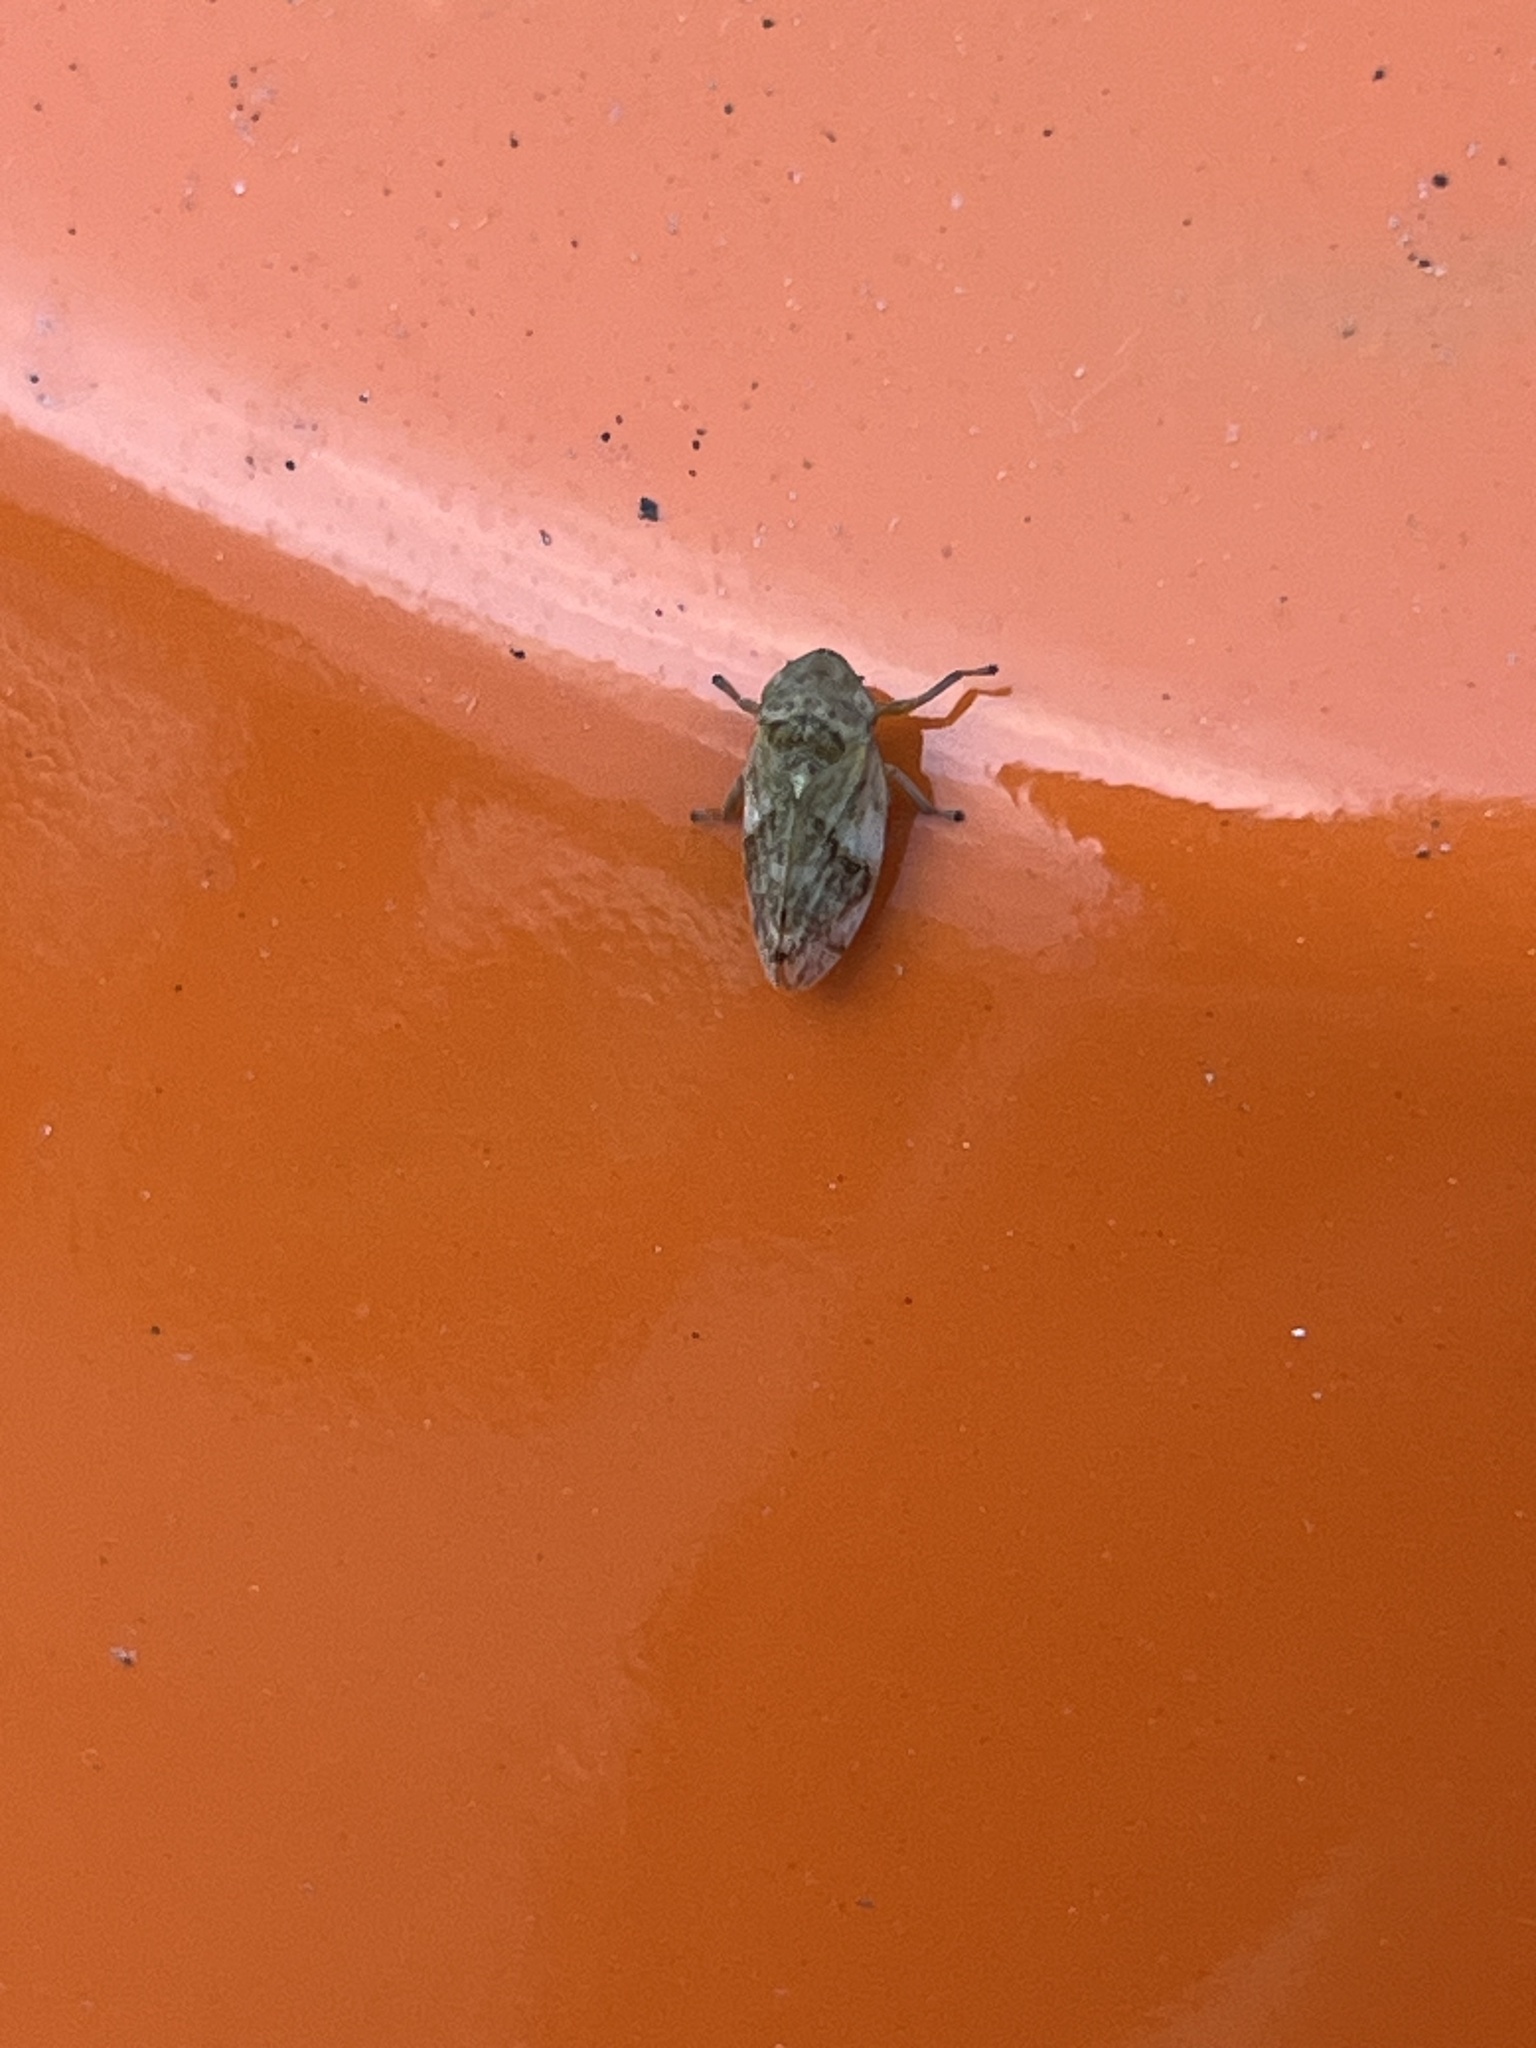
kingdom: Animalia
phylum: Arthropoda
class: Insecta
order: Hemiptera
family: Aphrophoridae
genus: Philaenus
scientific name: Philaenus spumarius
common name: Meadow spittlebug
